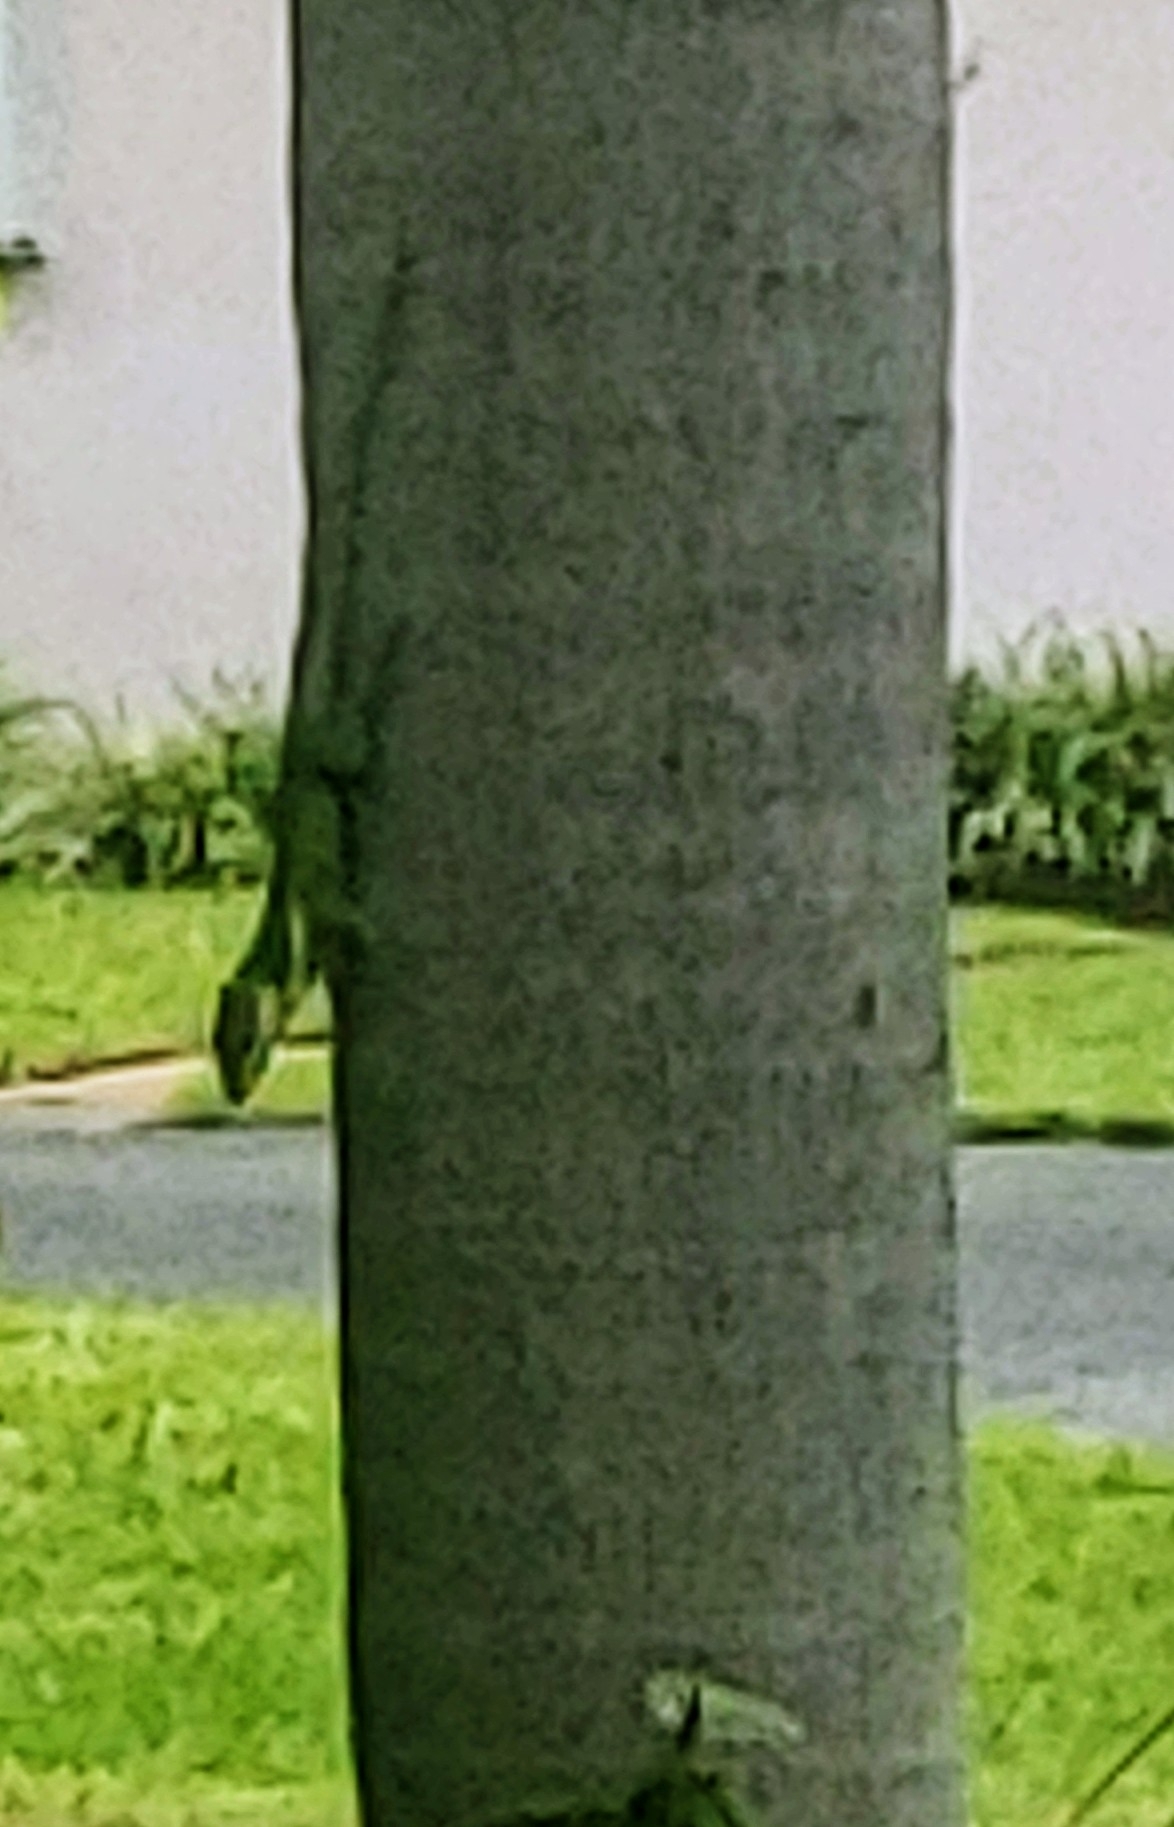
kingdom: Animalia
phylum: Chordata
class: Squamata
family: Dactyloidae
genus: Anolis
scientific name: Anolis equestris
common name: Knight anole
